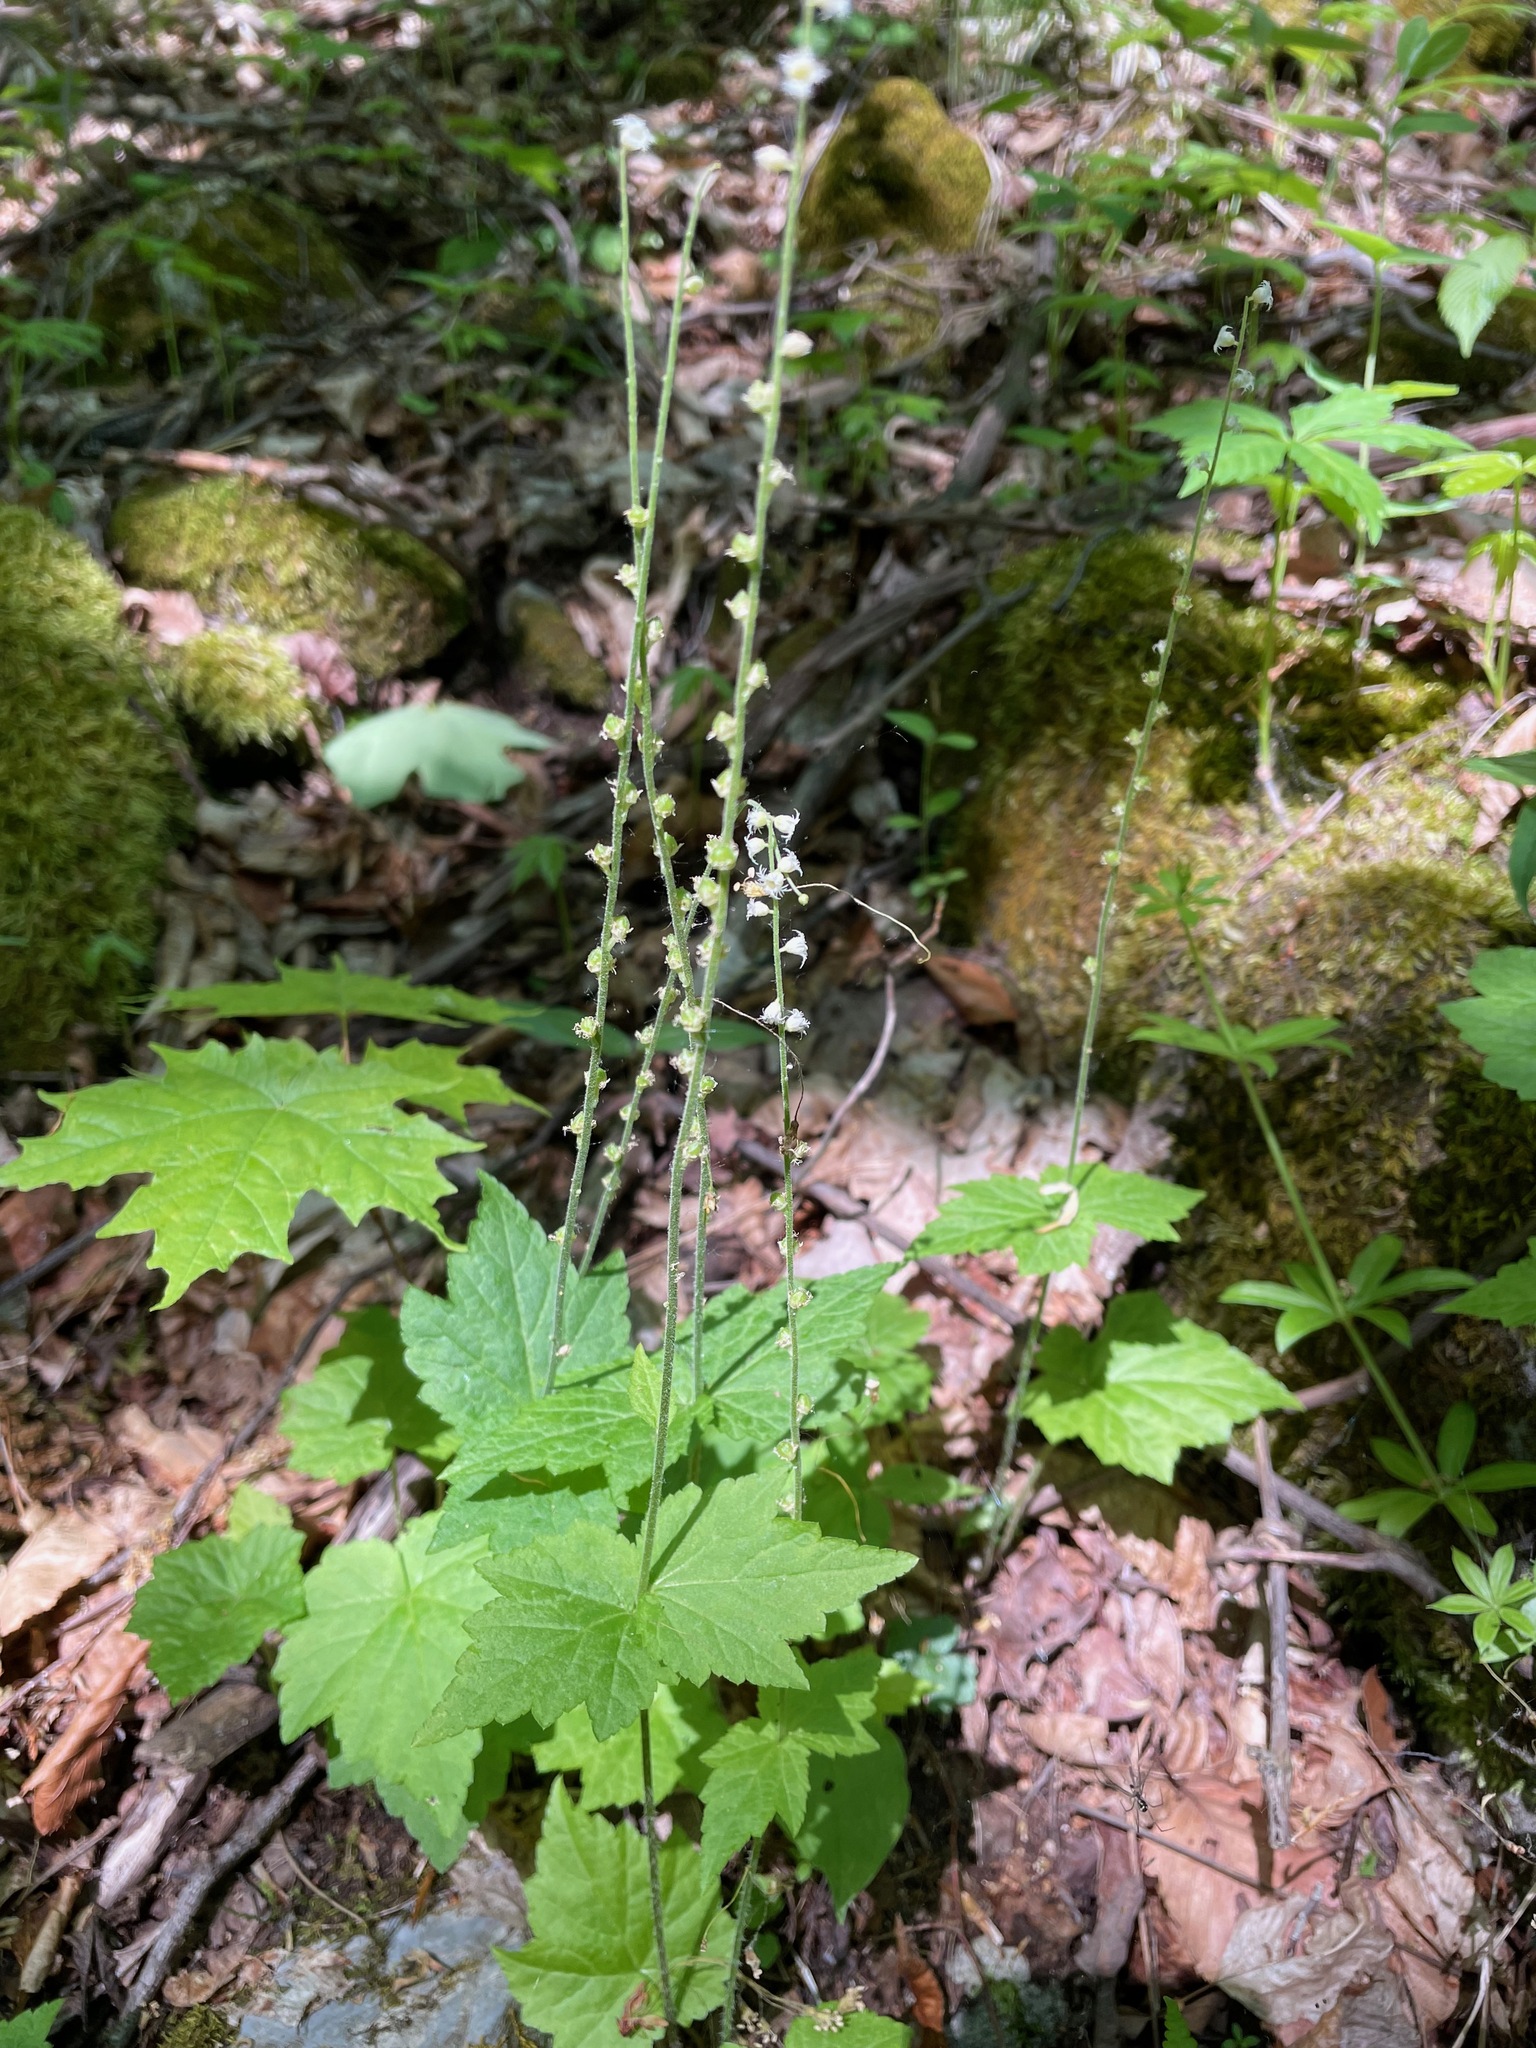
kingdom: Plantae
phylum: Tracheophyta
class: Magnoliopsida
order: Saxifragales
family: Saxifragaceae
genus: Mitella
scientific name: Mitella diphylla
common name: Coolwort
